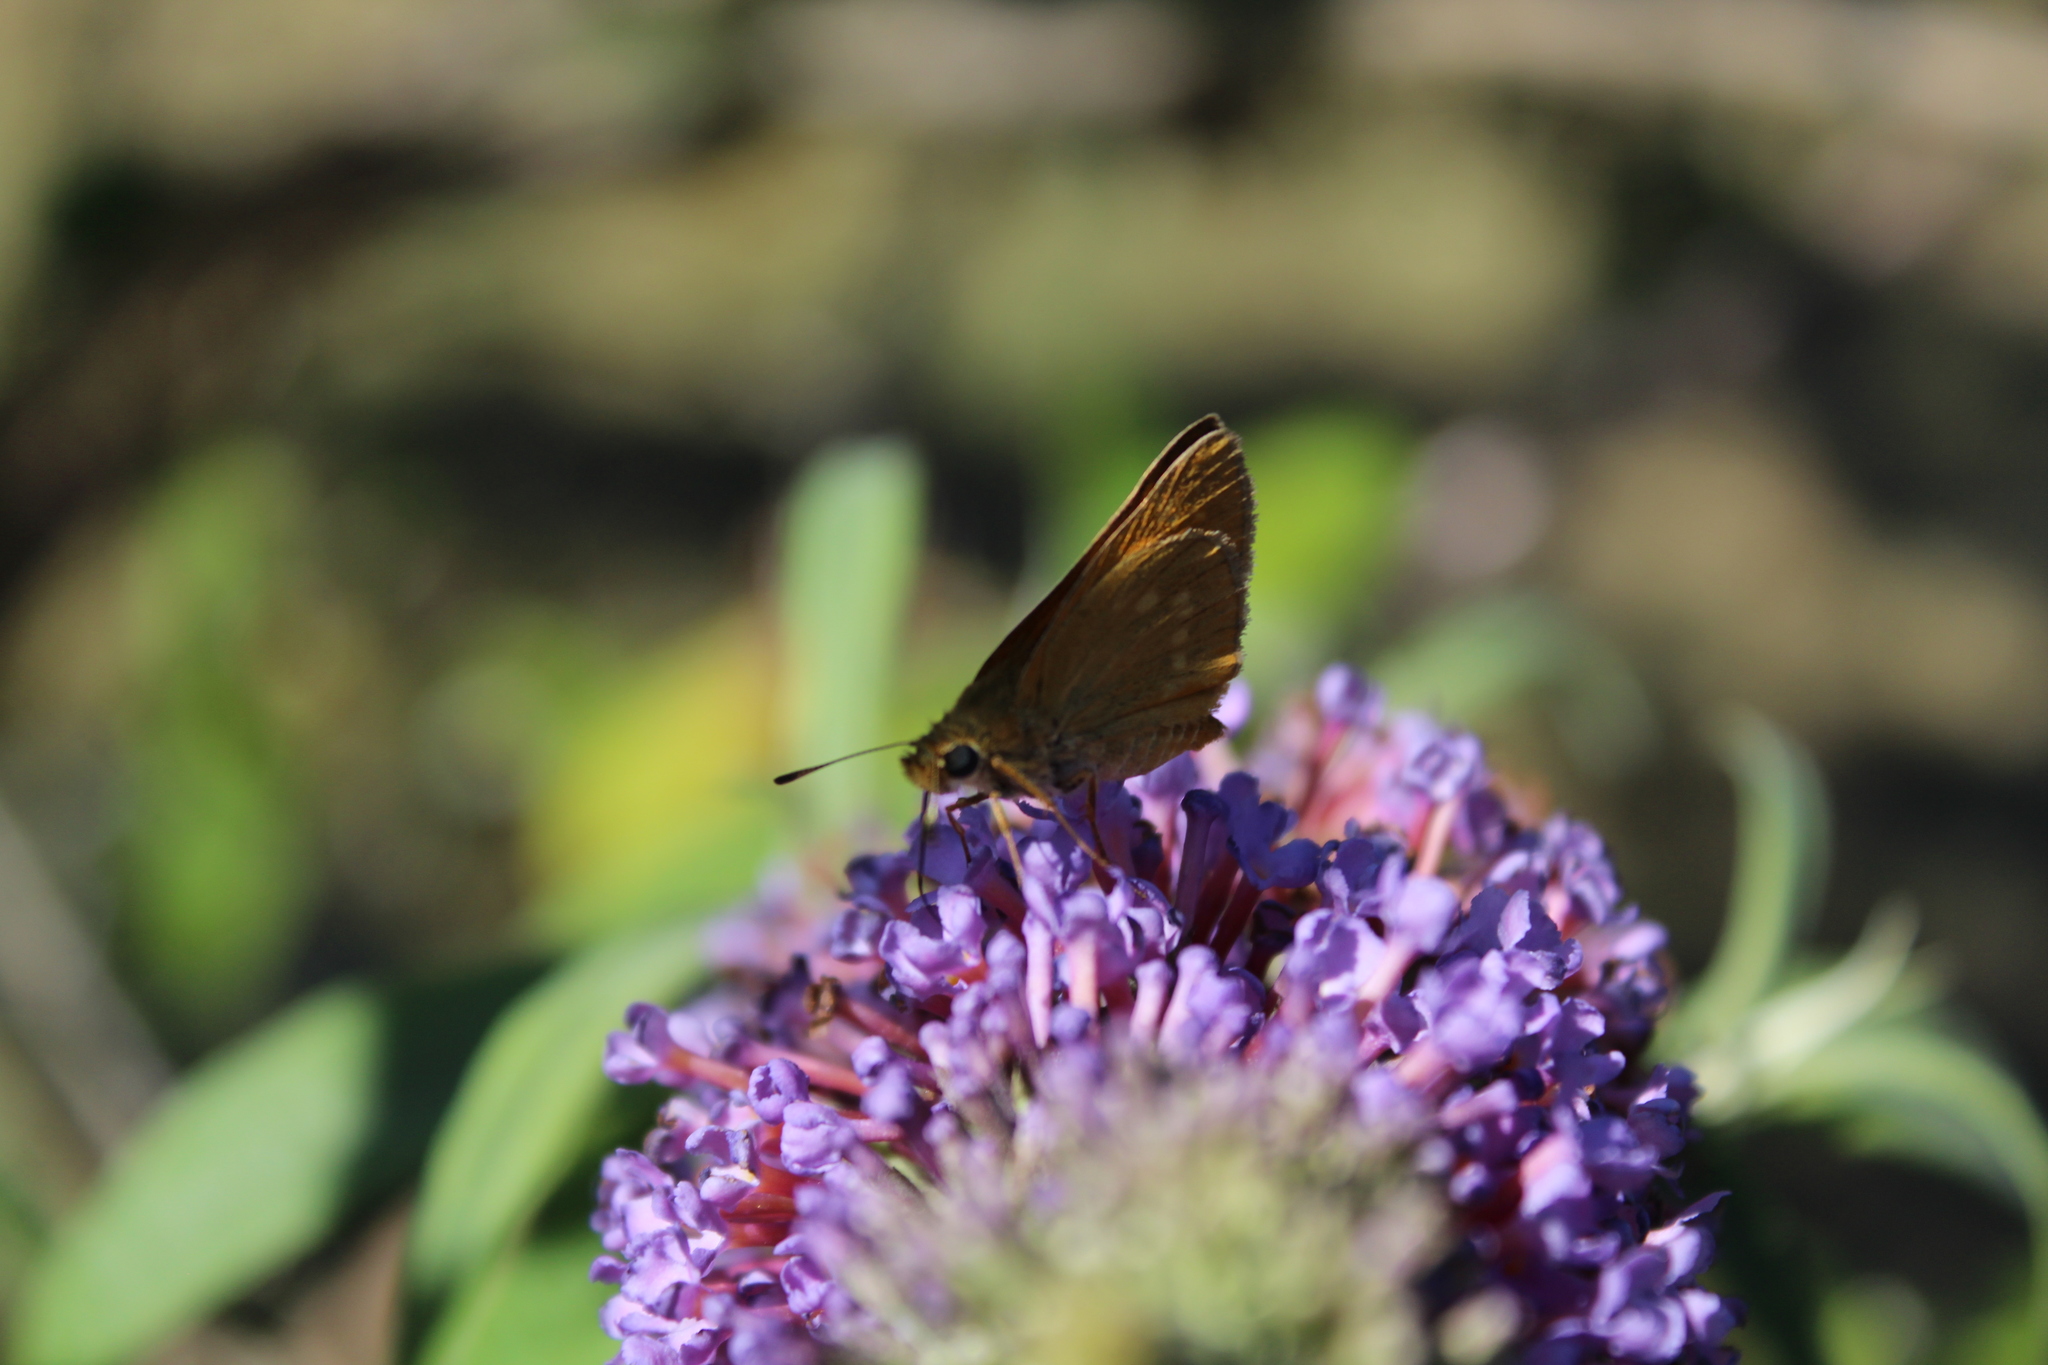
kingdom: Animalia
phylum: Arthropoda
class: Insecta
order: Lepidoptera
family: Hesperiidae
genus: Ochlodes
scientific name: Ochlodes venata
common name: Large skipper
